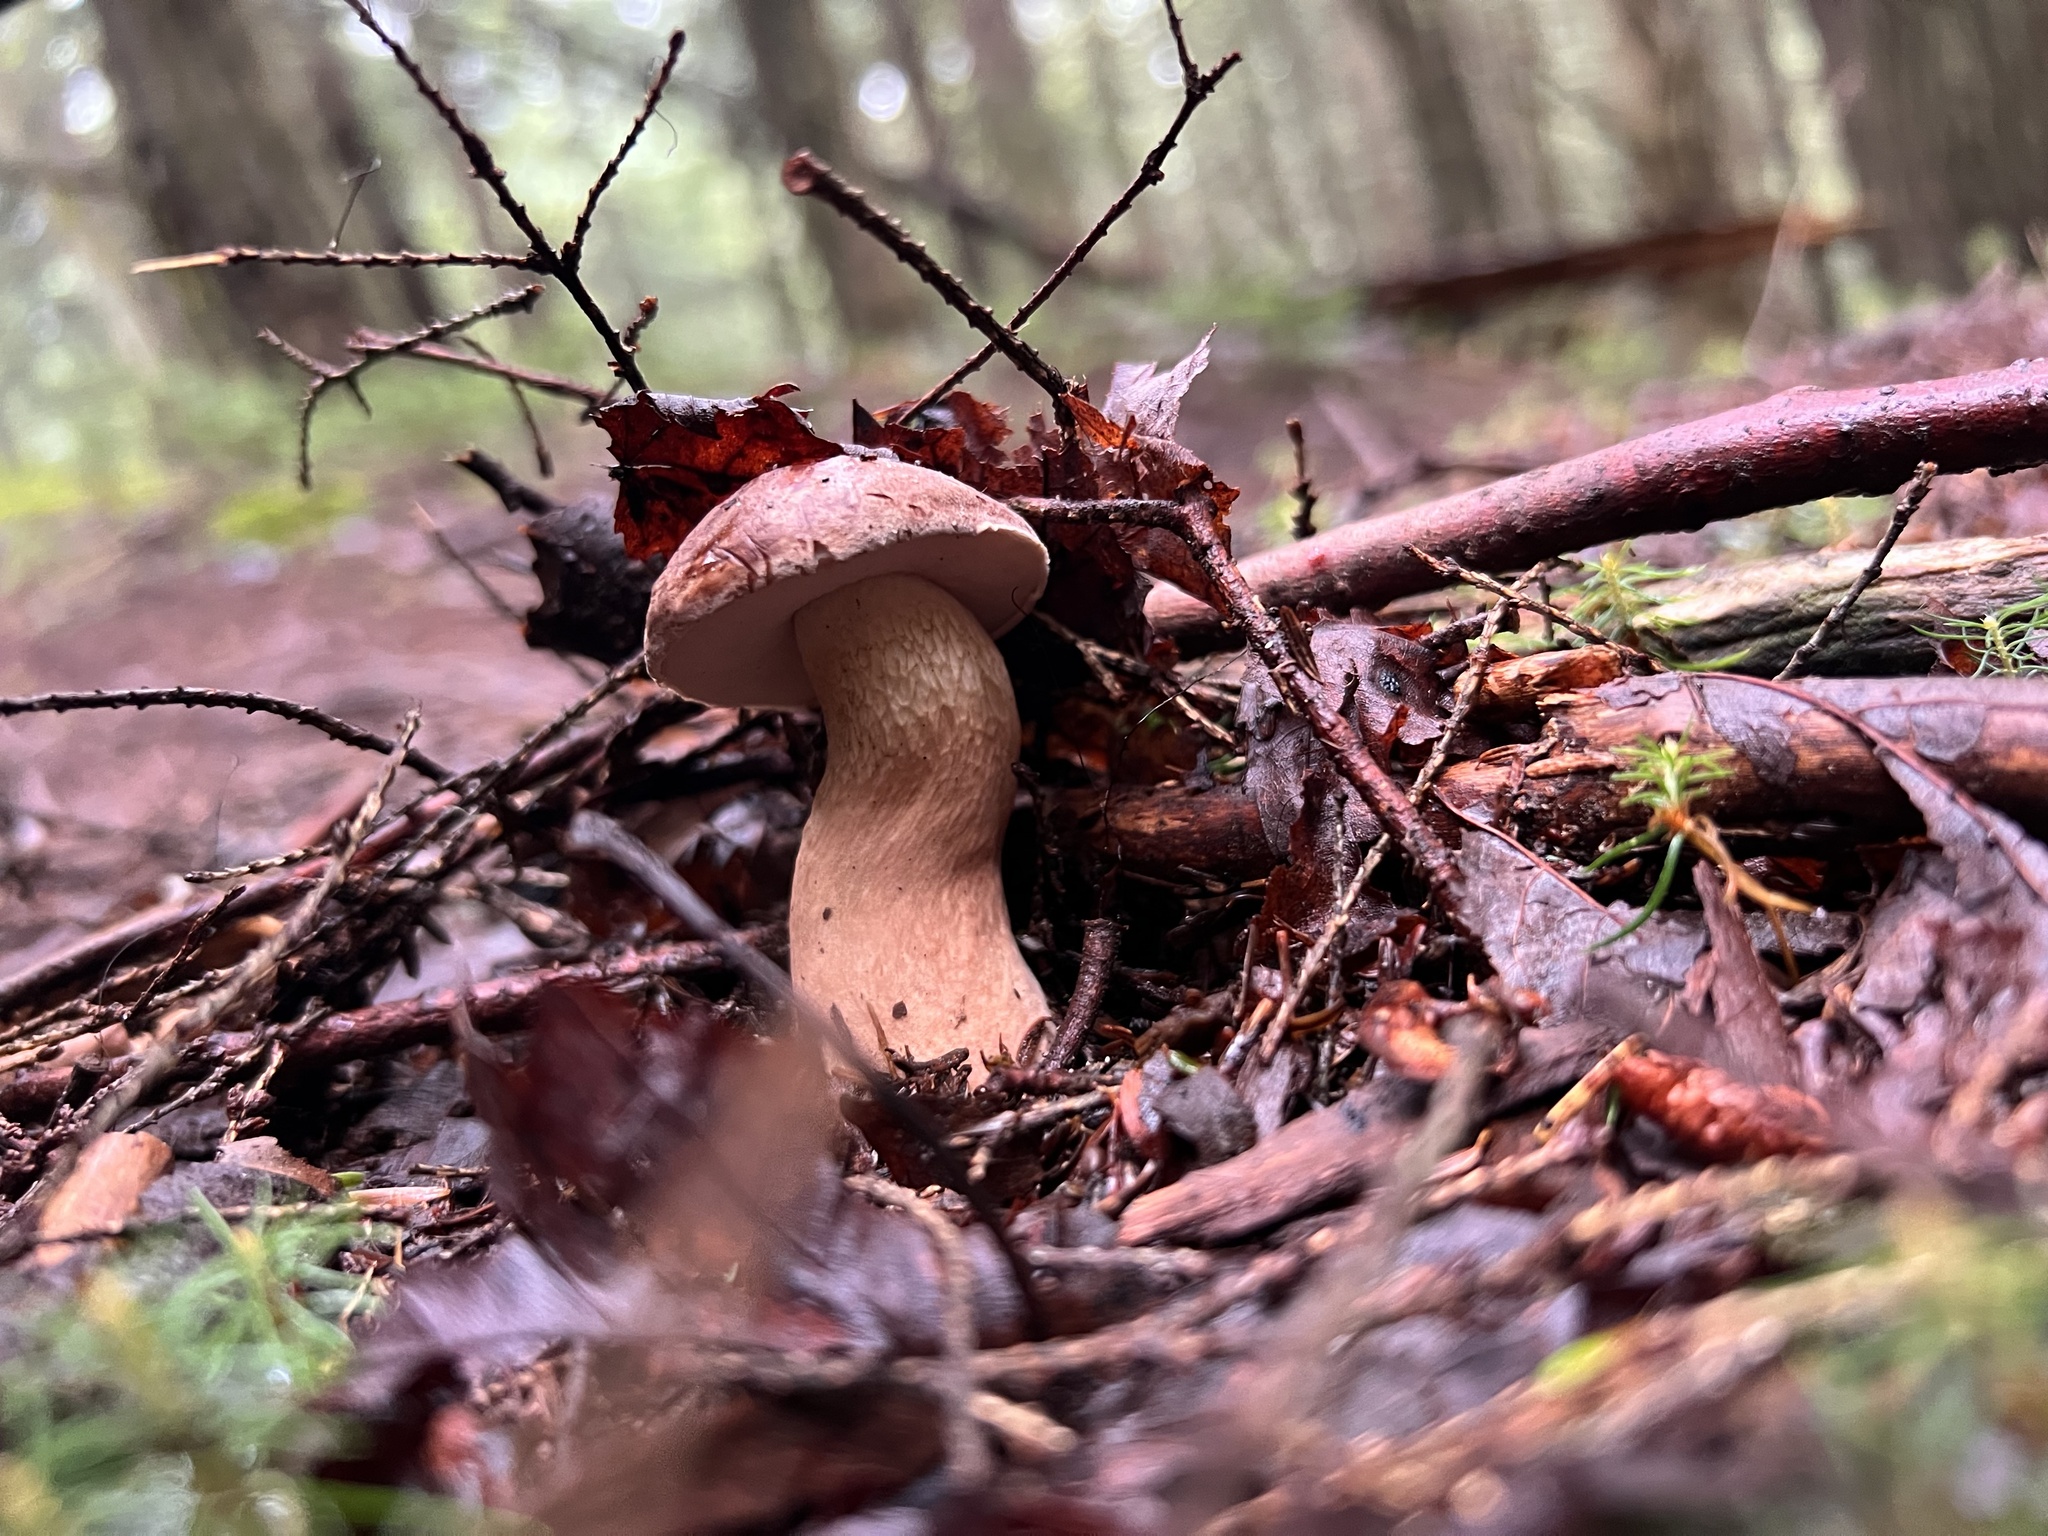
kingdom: Fungi
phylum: Basidiomycota
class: Agaricomycetes
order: Boletales
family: Boletaceae
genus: Tylopilus
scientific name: Tylopilus felleus
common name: Bitter bolete
